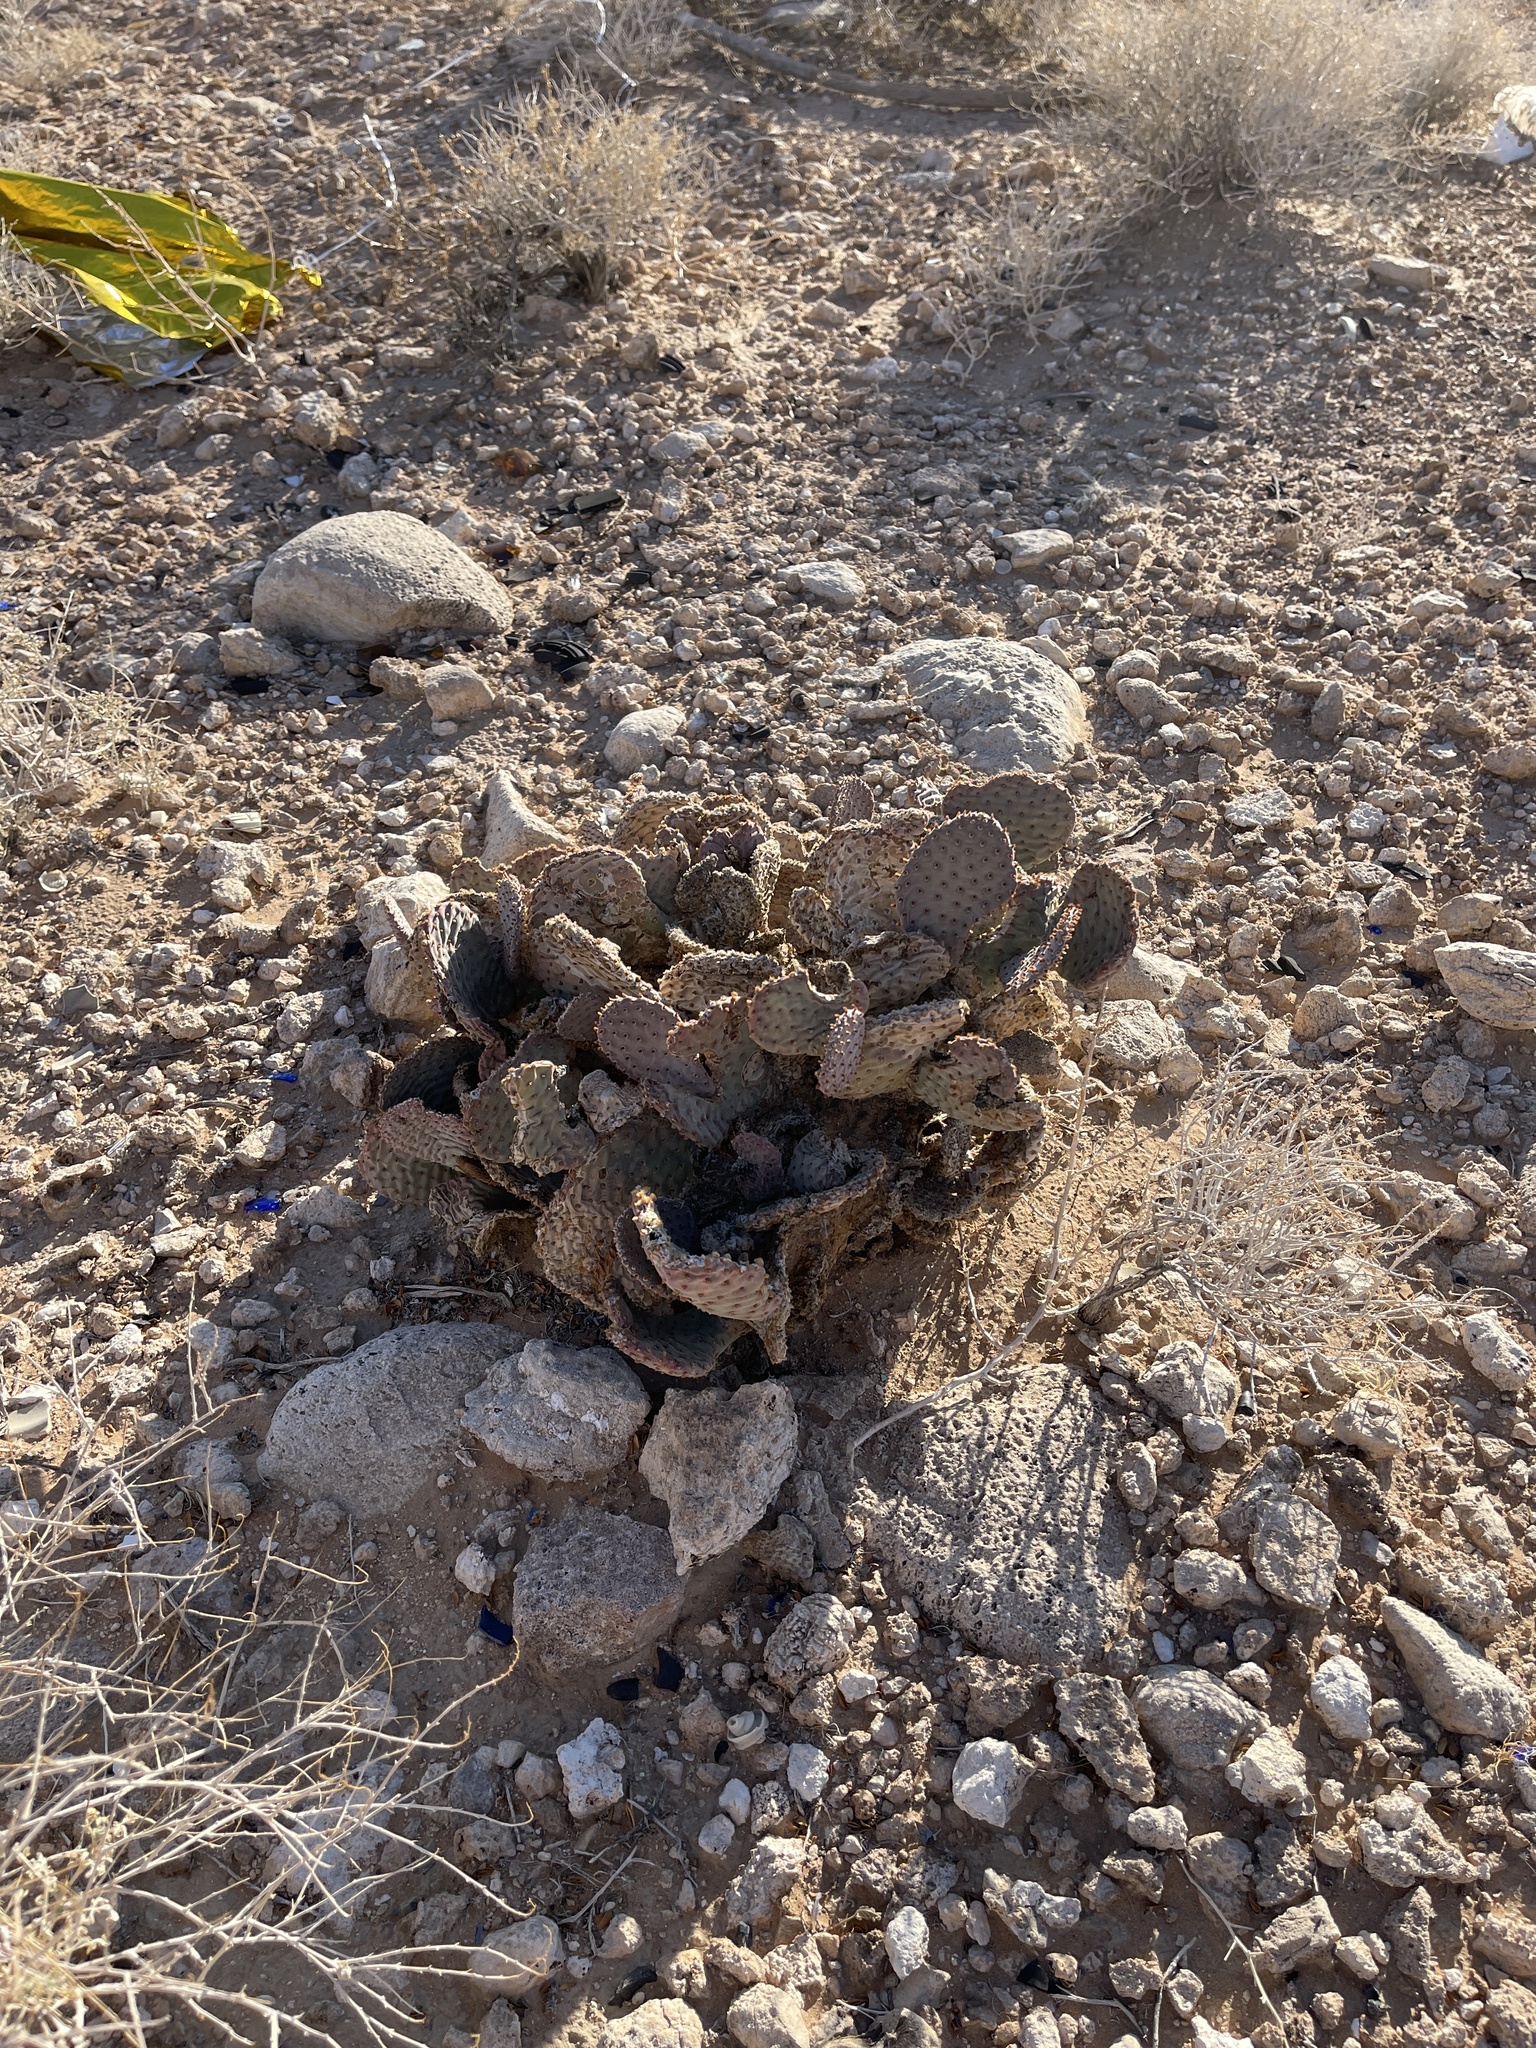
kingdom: Plantae
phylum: Tracheophyta
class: Magnoliopsida
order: Caryophyllales
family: Cactaceae
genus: Opuntia
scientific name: Opuntia basilaris
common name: Beavertail prickly-pear
